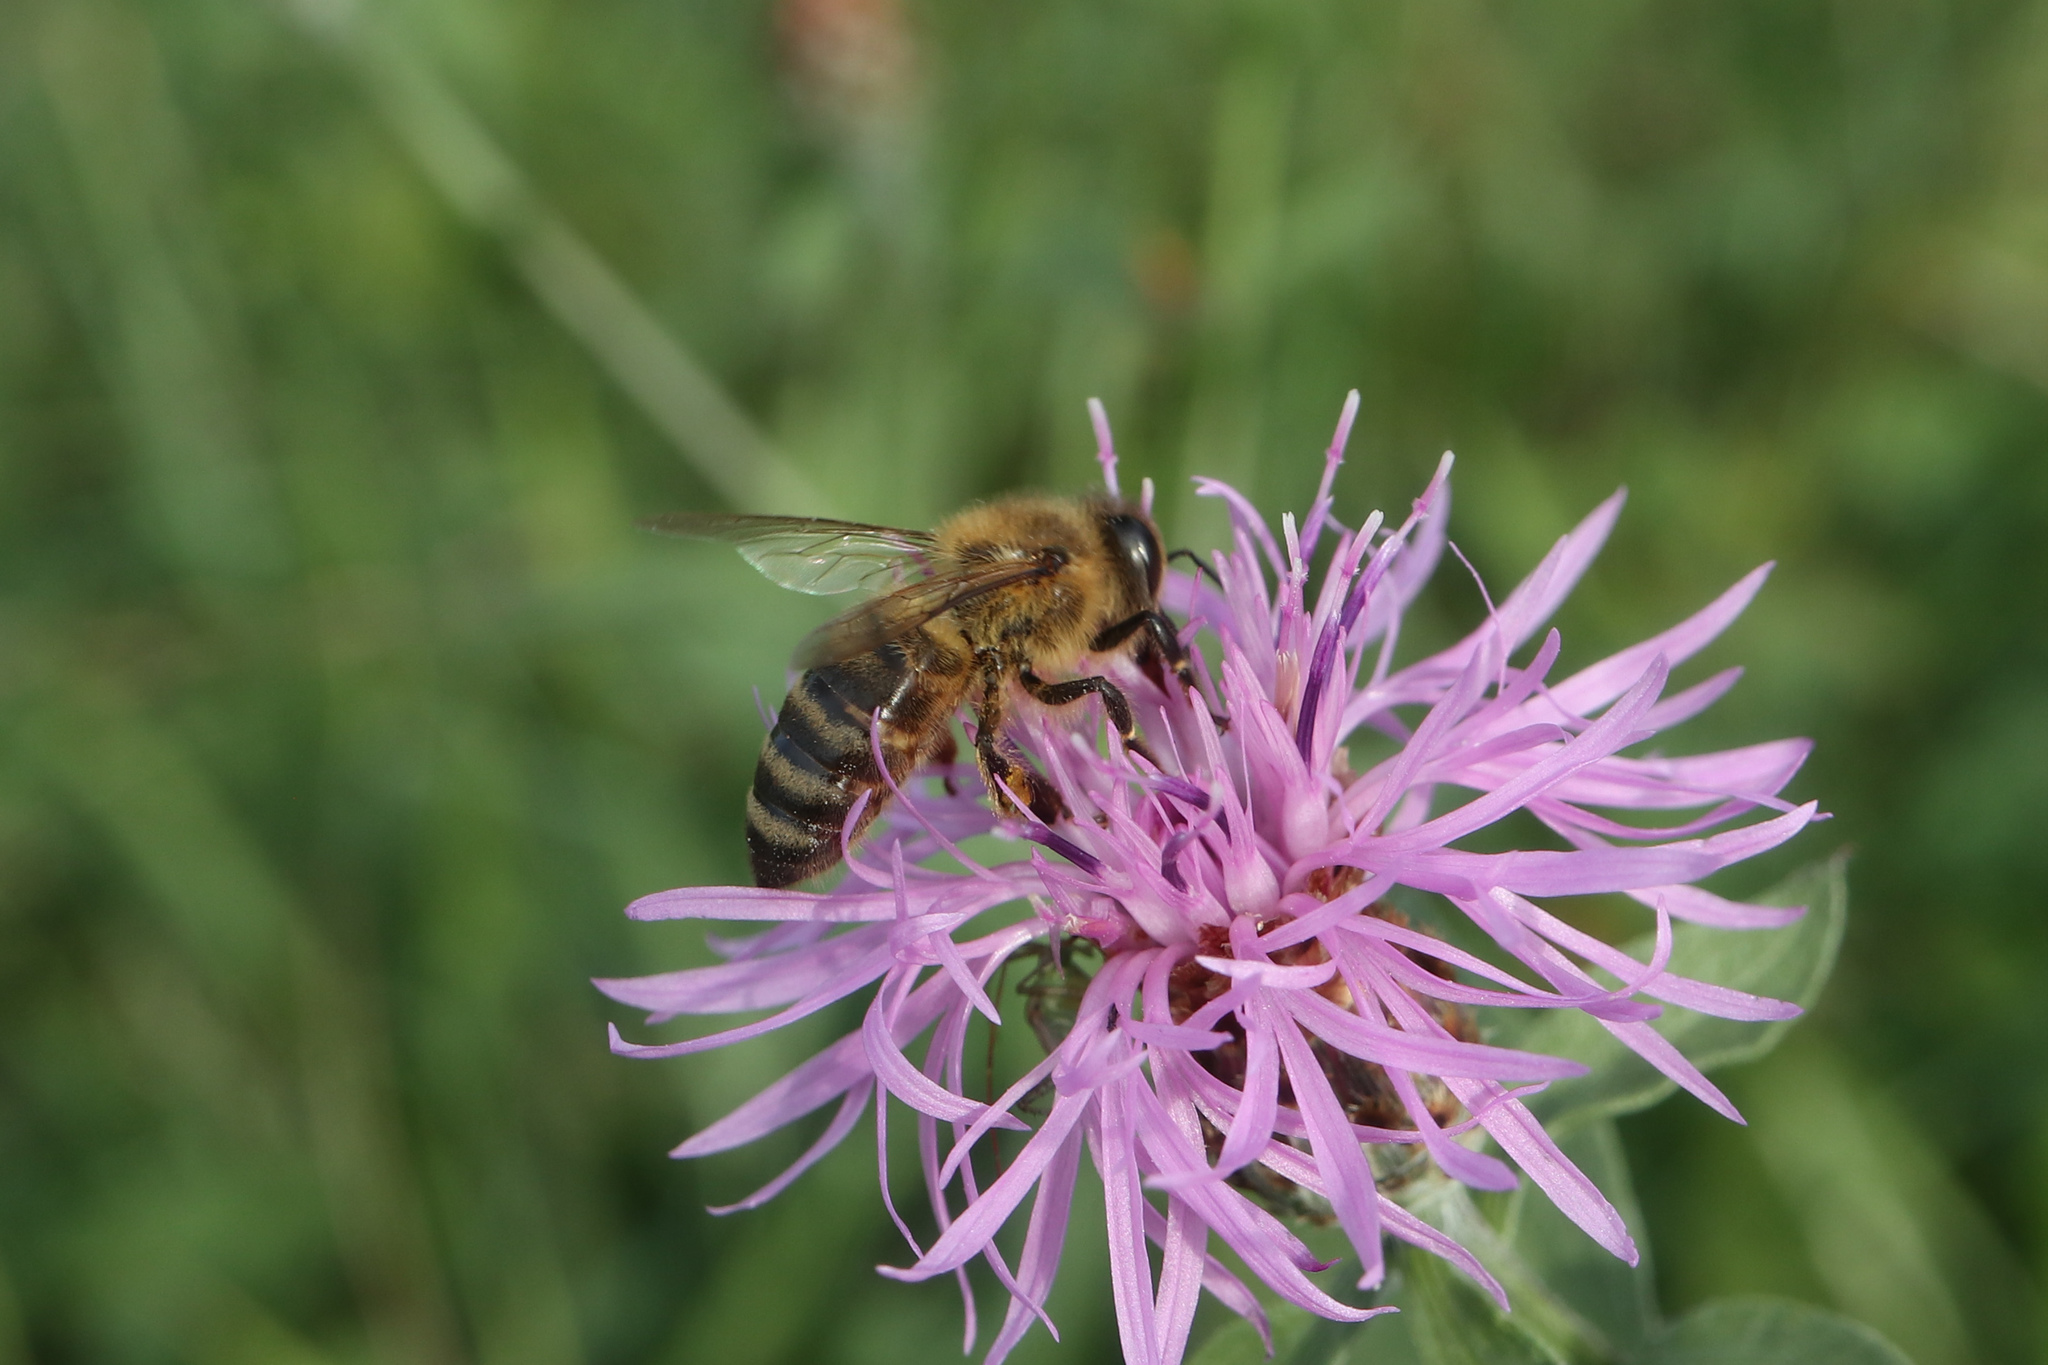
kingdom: Animalia
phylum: Arthropoda
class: Insecta
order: Hymenoptera
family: Apidae
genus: Apis
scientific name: Apis mellifera
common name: Honey bee
